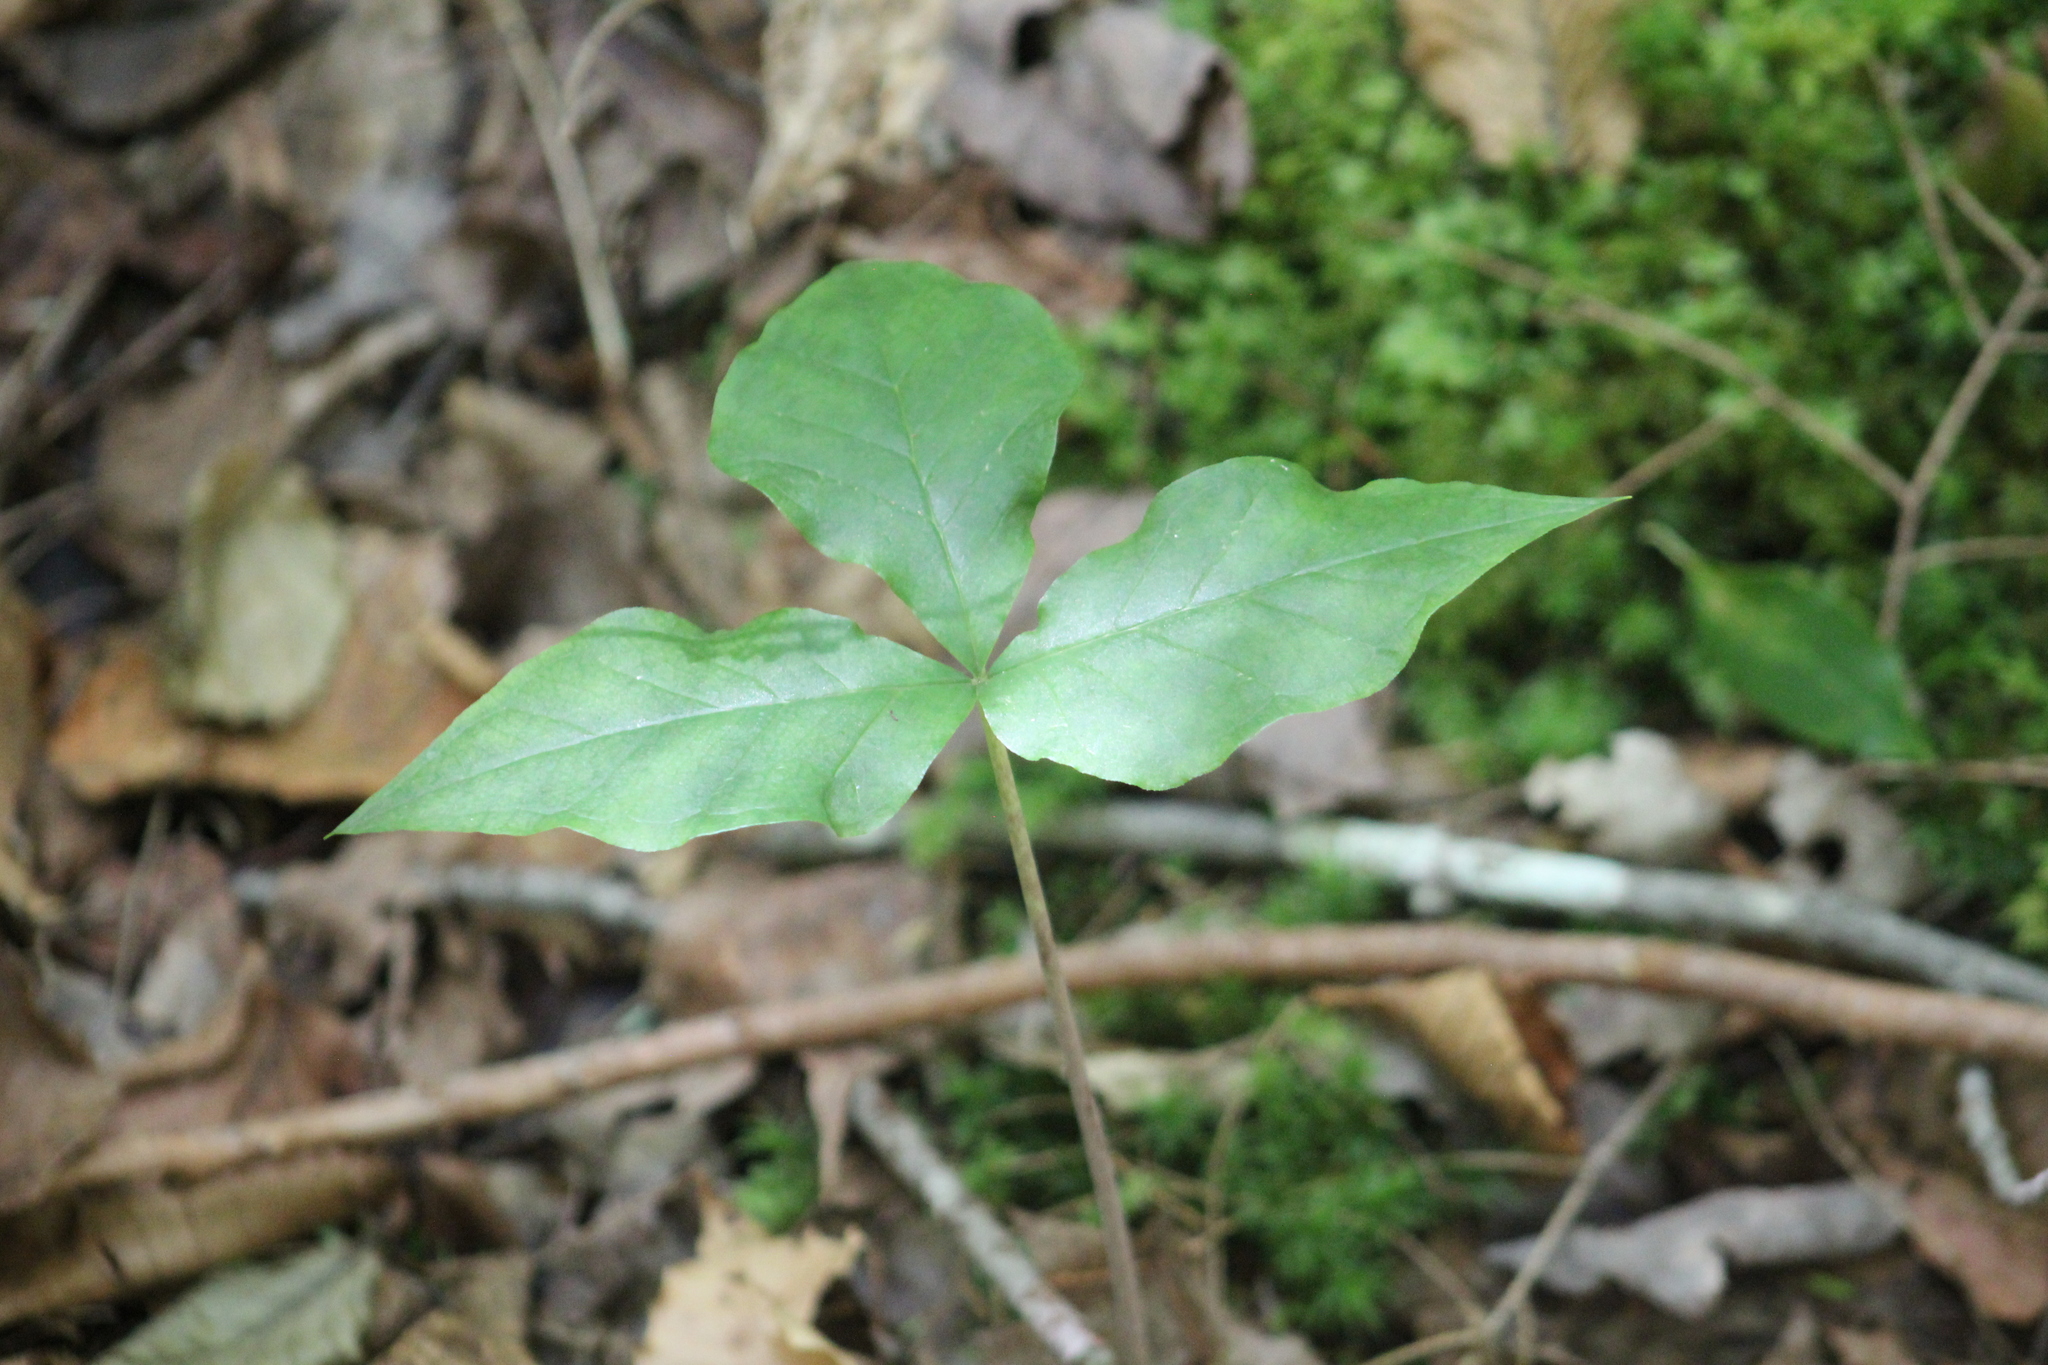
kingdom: Plantae
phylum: Tracheophyta
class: Liliopsida
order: Alismatales
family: Araceae
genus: Arisaema
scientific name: Arisaema triphyllum
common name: Jack-in-the-pulpit
